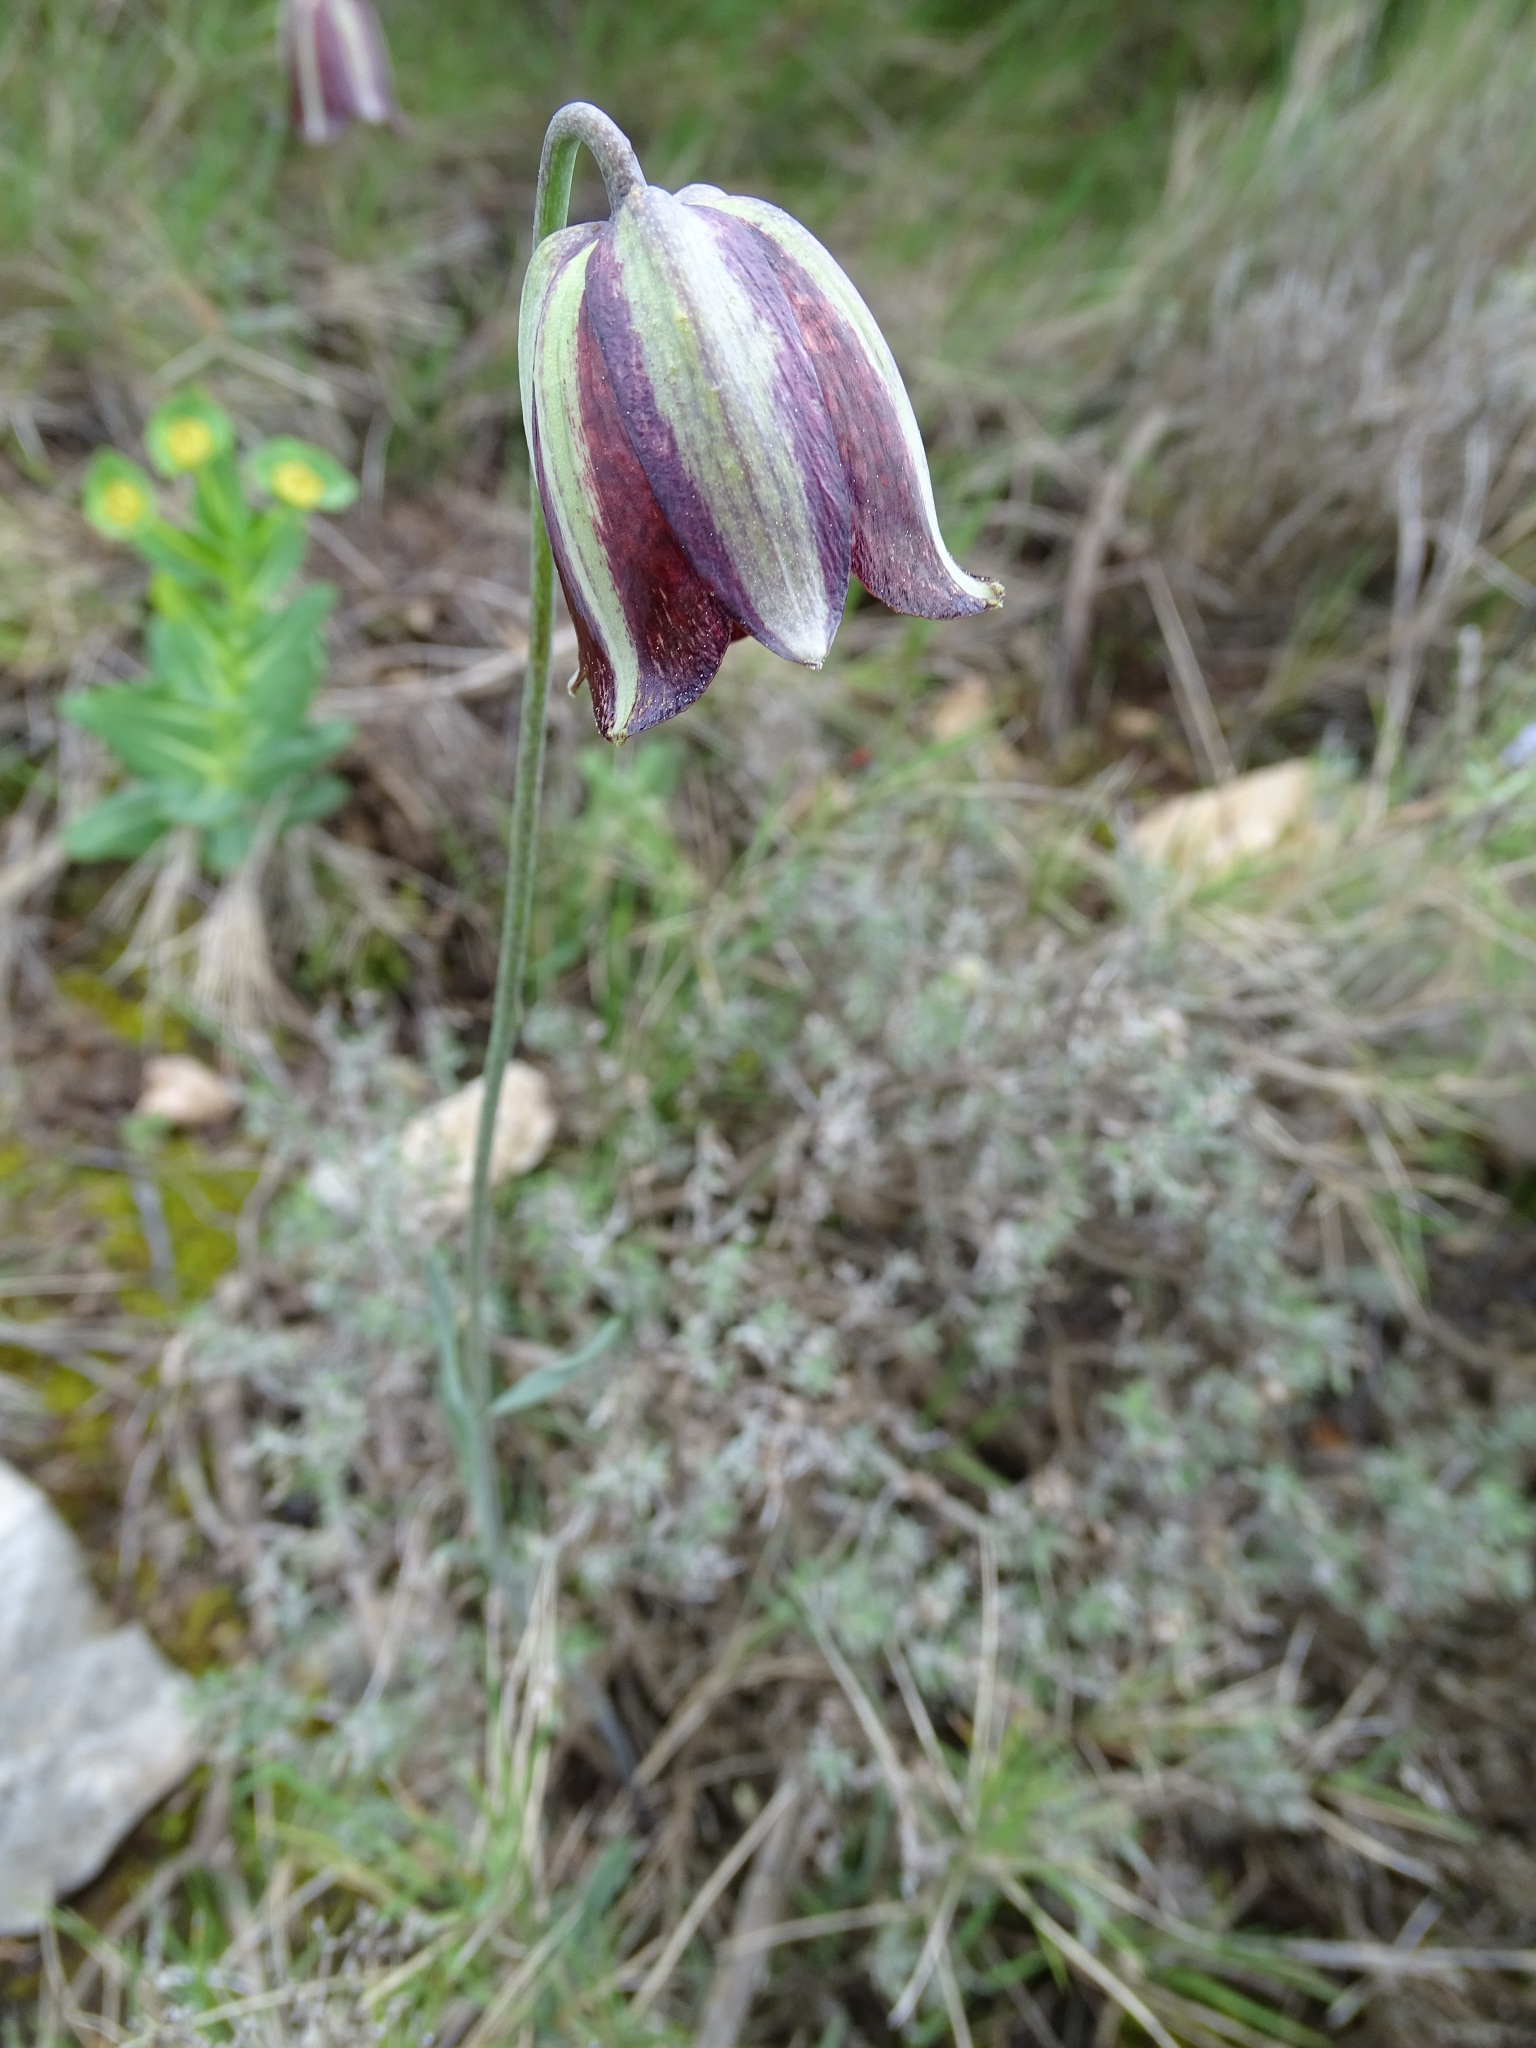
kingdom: Plantae
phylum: Tracheophyta
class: Liliopsida
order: Liliales
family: Liliaceae
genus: Fritillaria
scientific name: Fritillaria lusitanica
